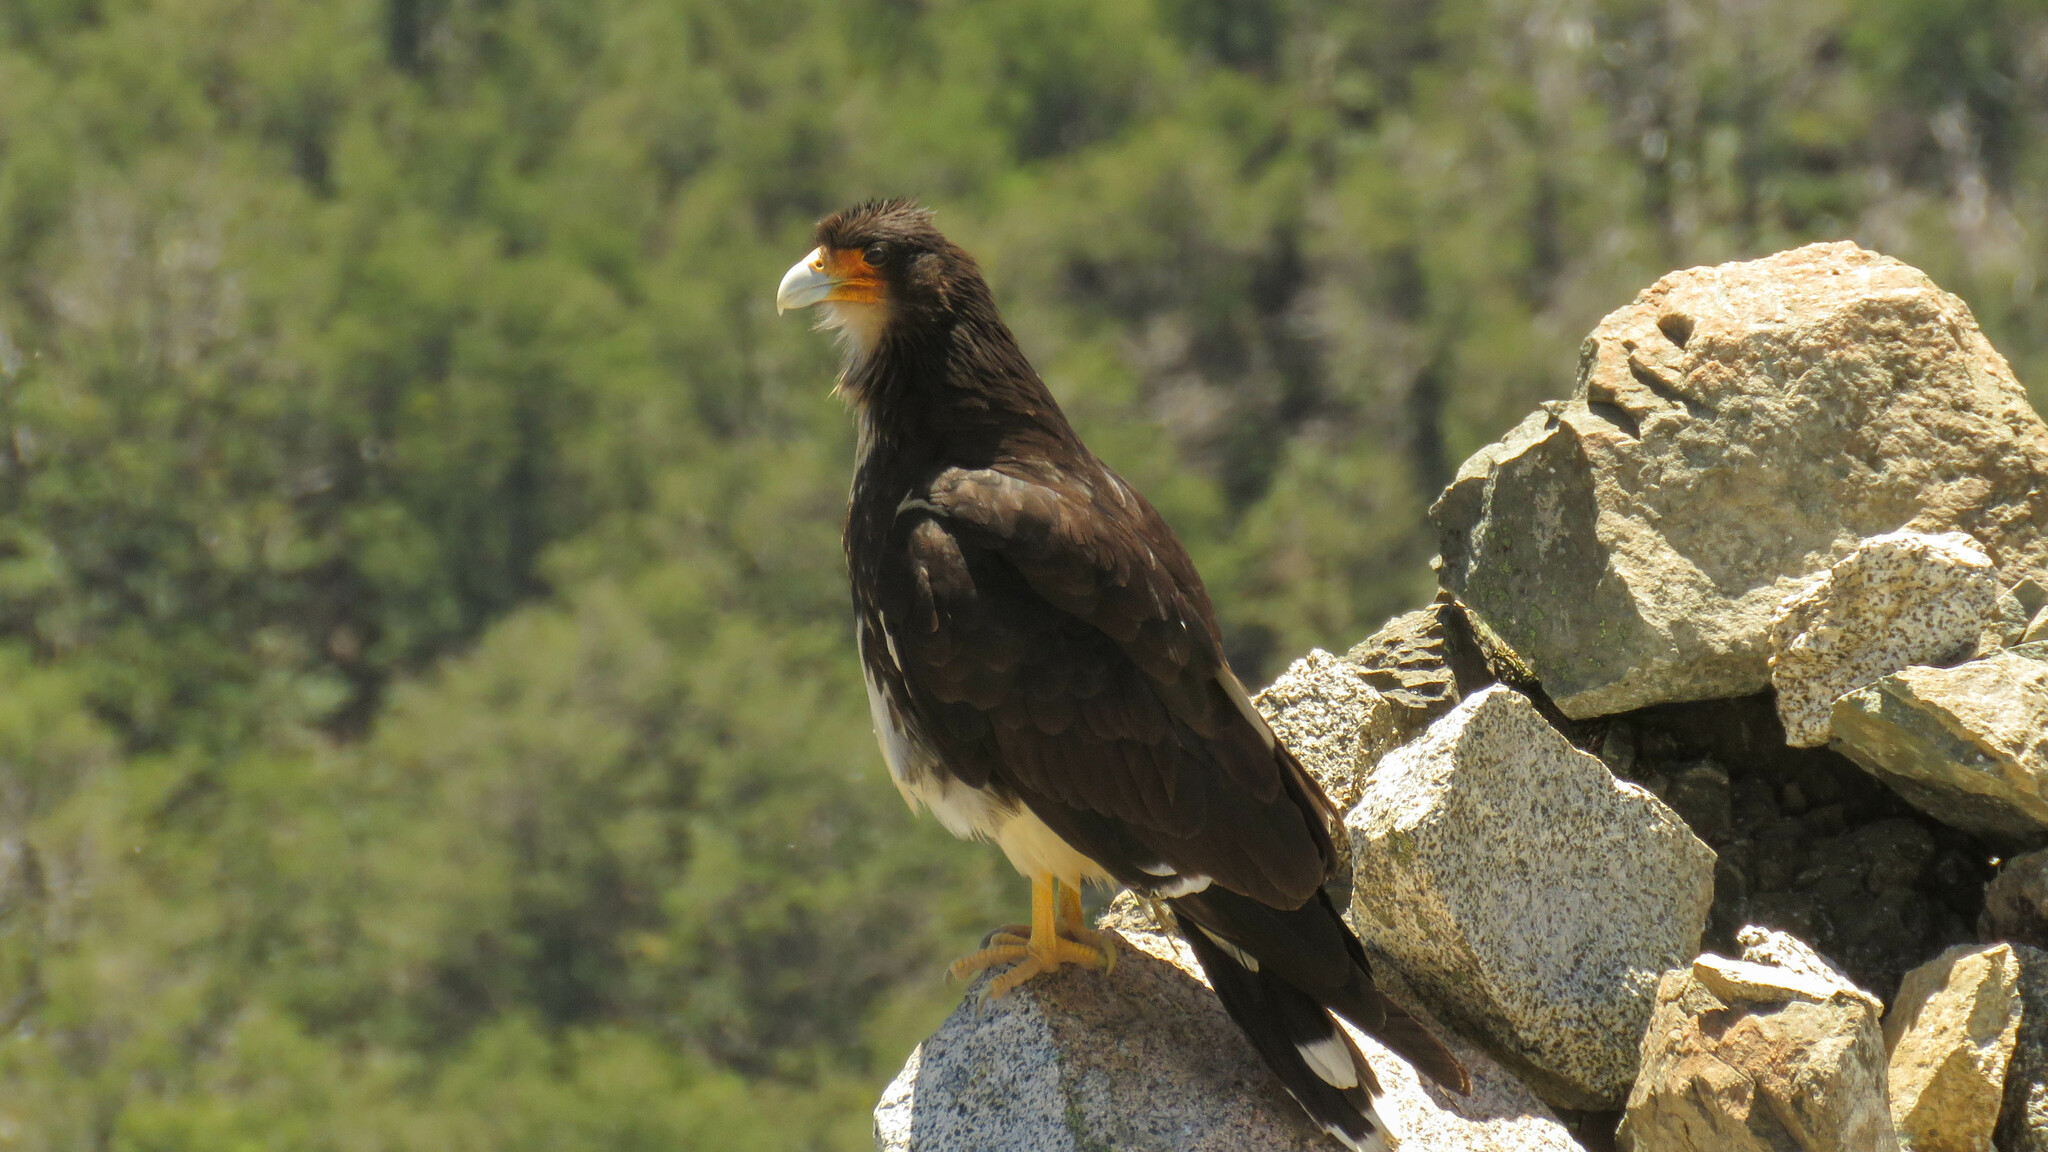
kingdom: Animalia
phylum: Chordata
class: Aves
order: Falconiformes
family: Falconidae
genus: Daptrius
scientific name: Daptrius
